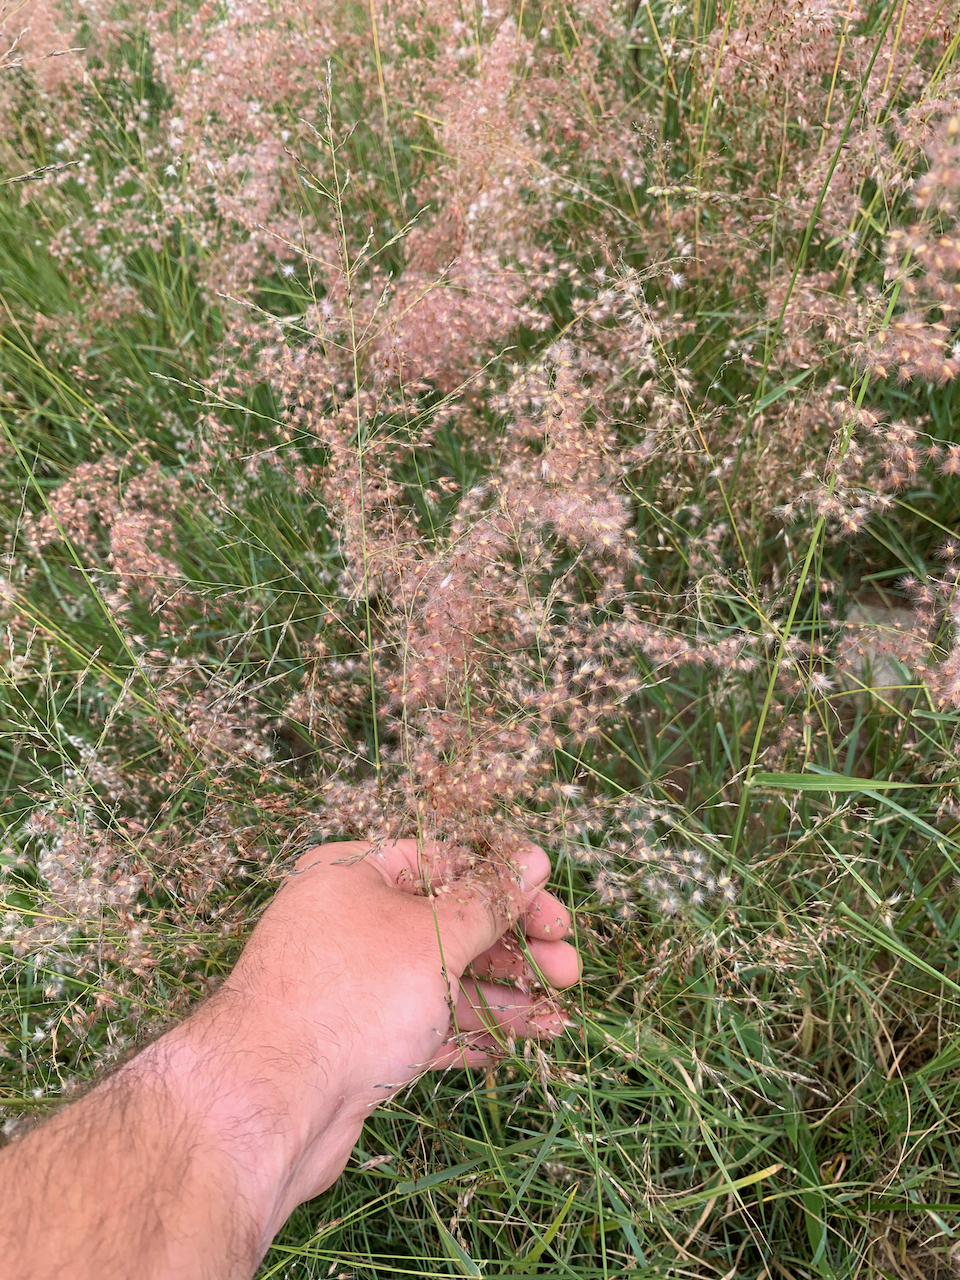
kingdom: Plantae
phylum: Tracheophyta
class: Liliopsida
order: Poales
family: Poaceae
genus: Melinis
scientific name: Melinis repens
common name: Rose natal grass
